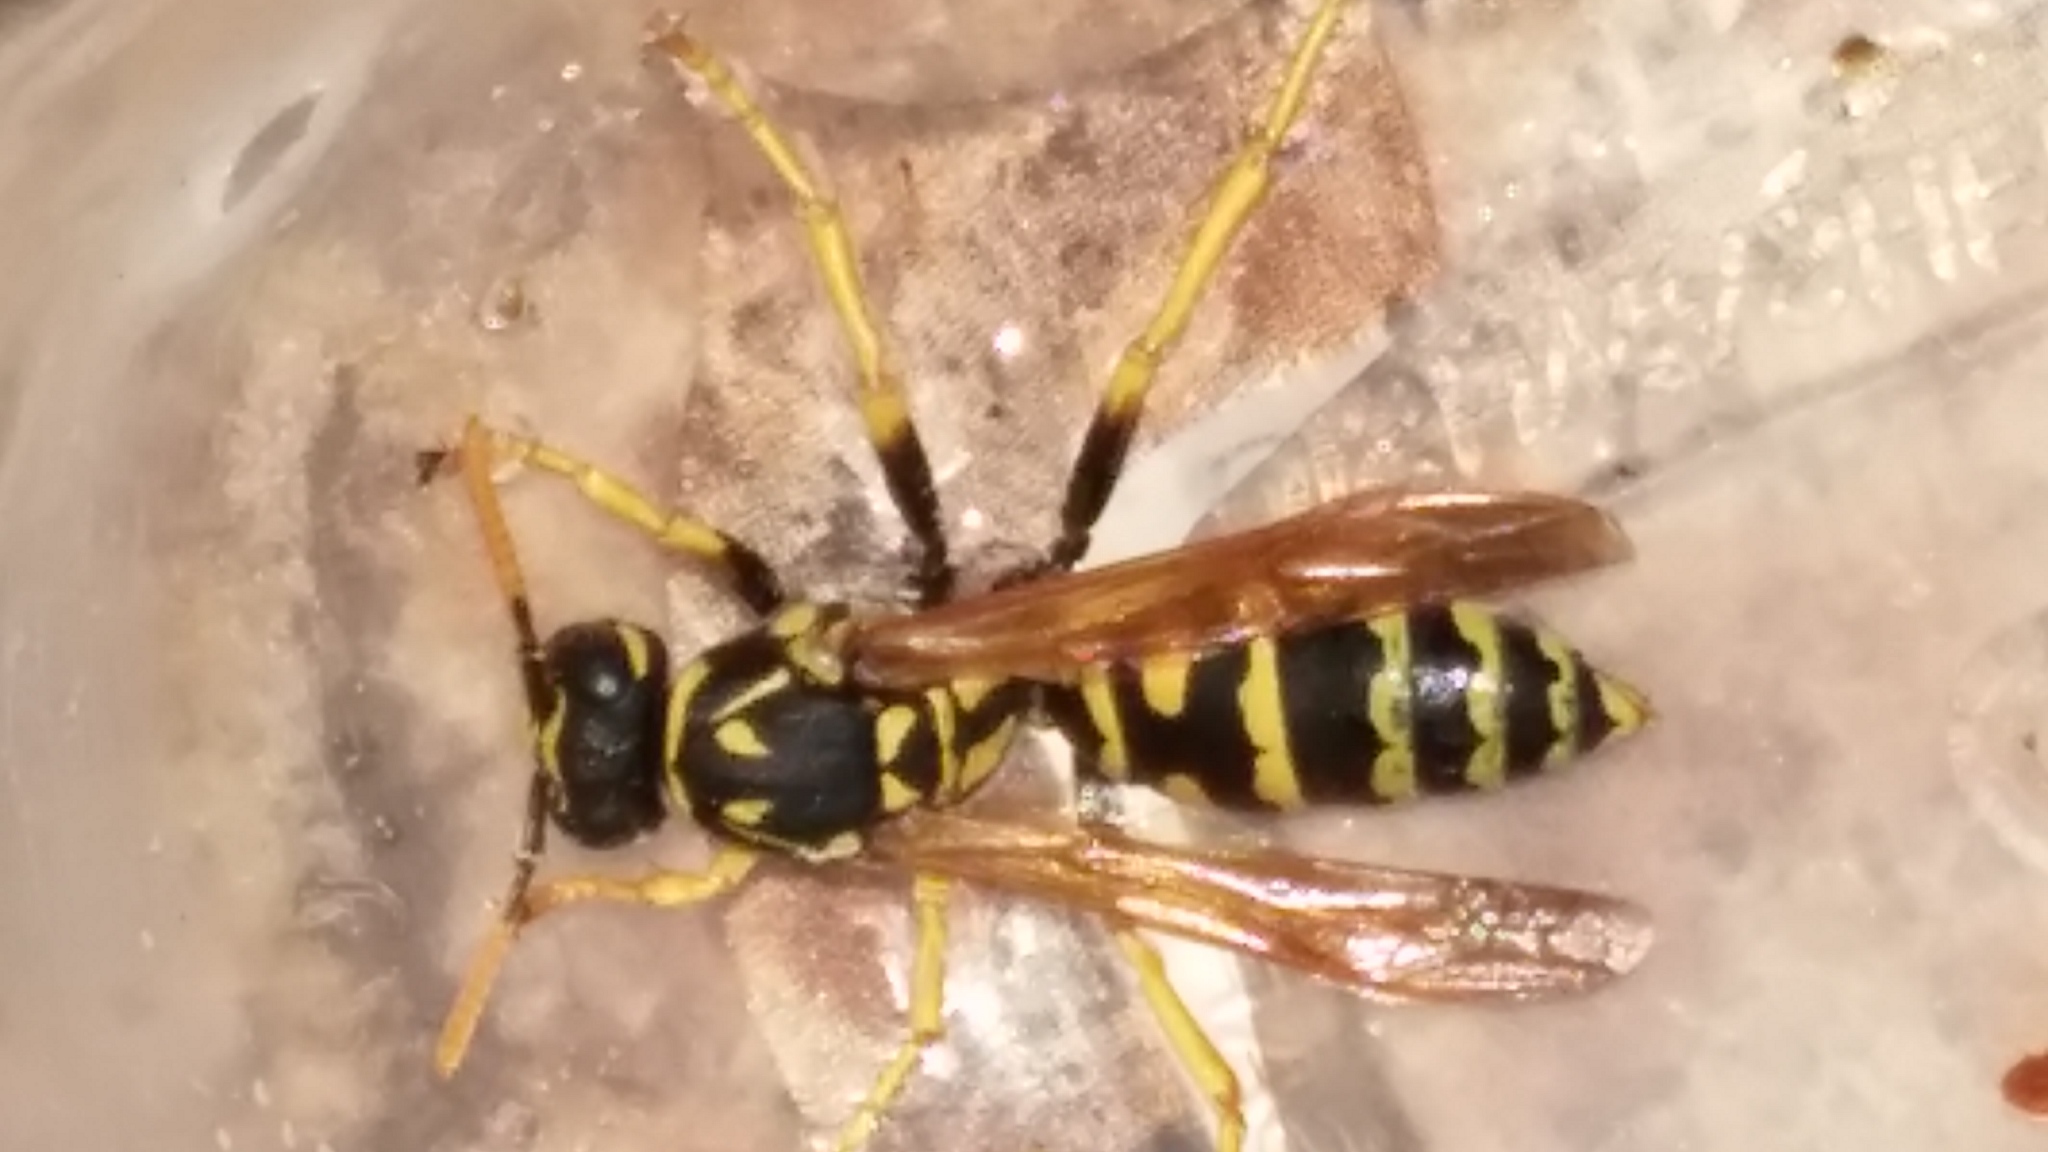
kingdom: Animalia
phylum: Arthropoda
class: Insecta
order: Hymenoptera
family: Eumenidae
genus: Polistes
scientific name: Polistes dominula
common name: Paper wasp
